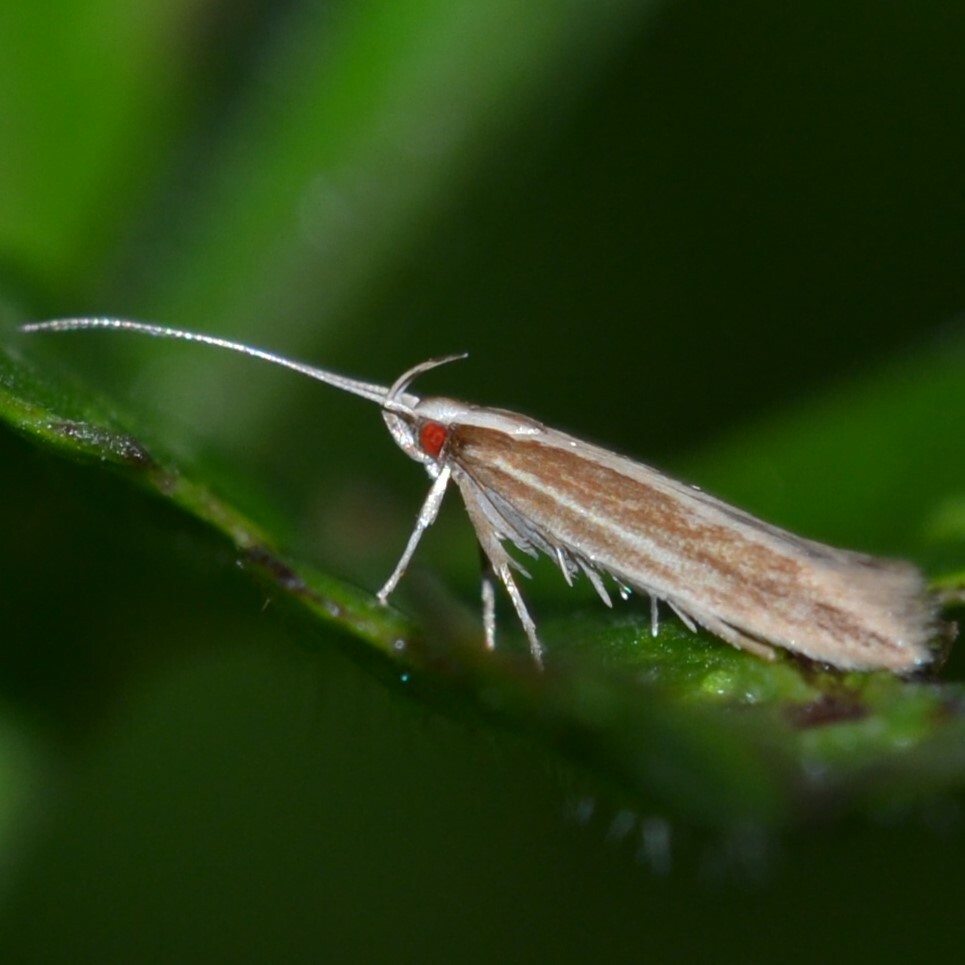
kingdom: Animalia
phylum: Arthropoda
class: Insecta
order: Lepidoptera
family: Cosmopterigidae
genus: Asymphorodes
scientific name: Asymphorodes
